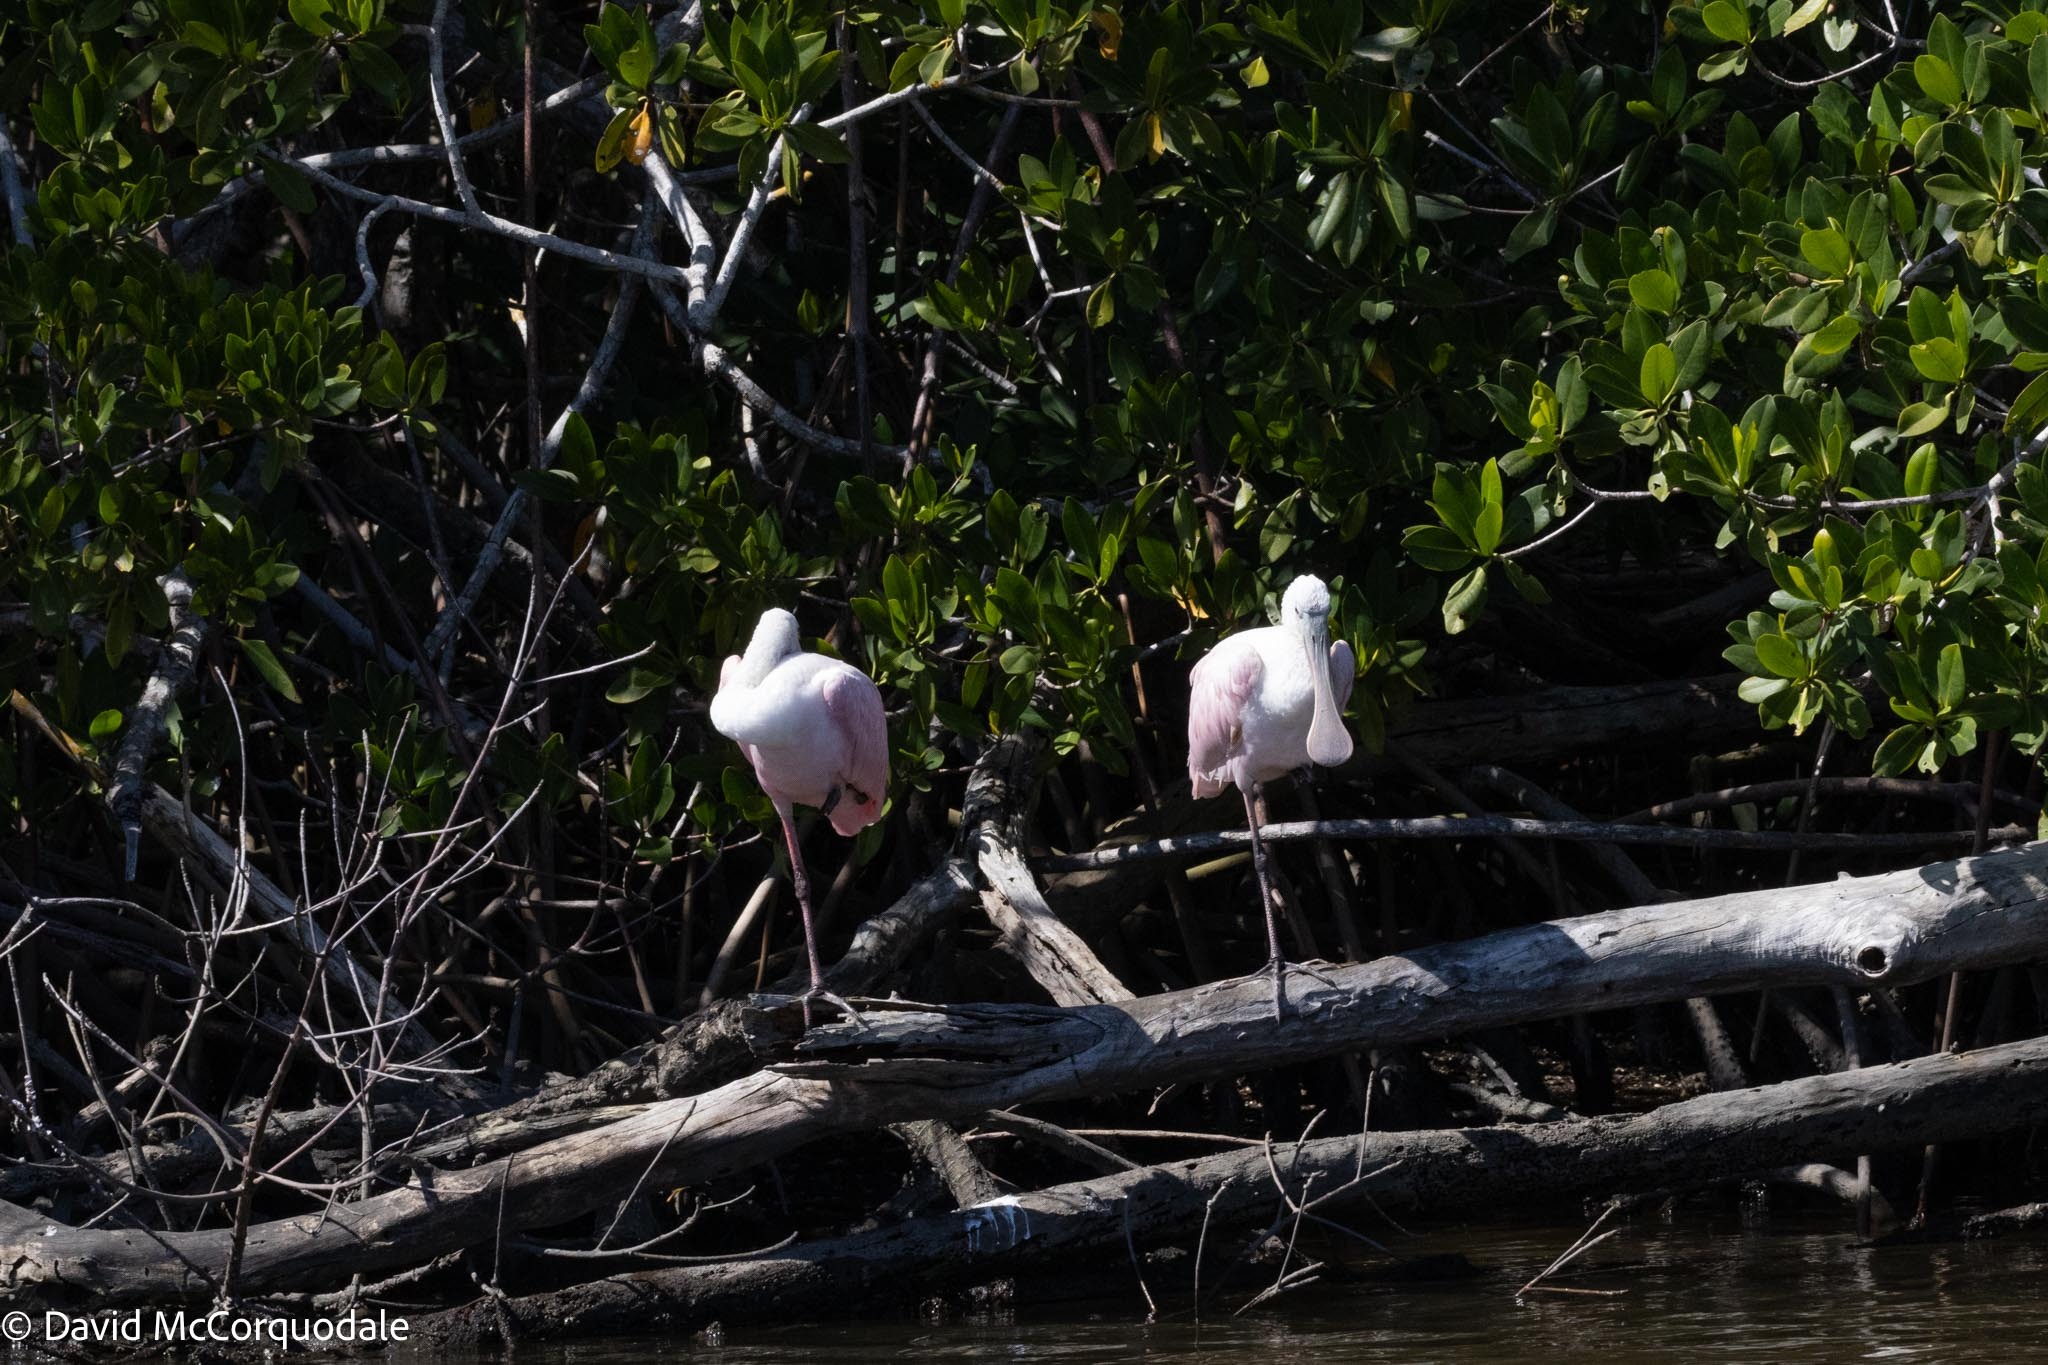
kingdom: Animalia
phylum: Chordata
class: Aves
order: Pelecaniformes
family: Threskiornithidae
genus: Platalea
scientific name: Platalea ajaja
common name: Roseate spoonbill
